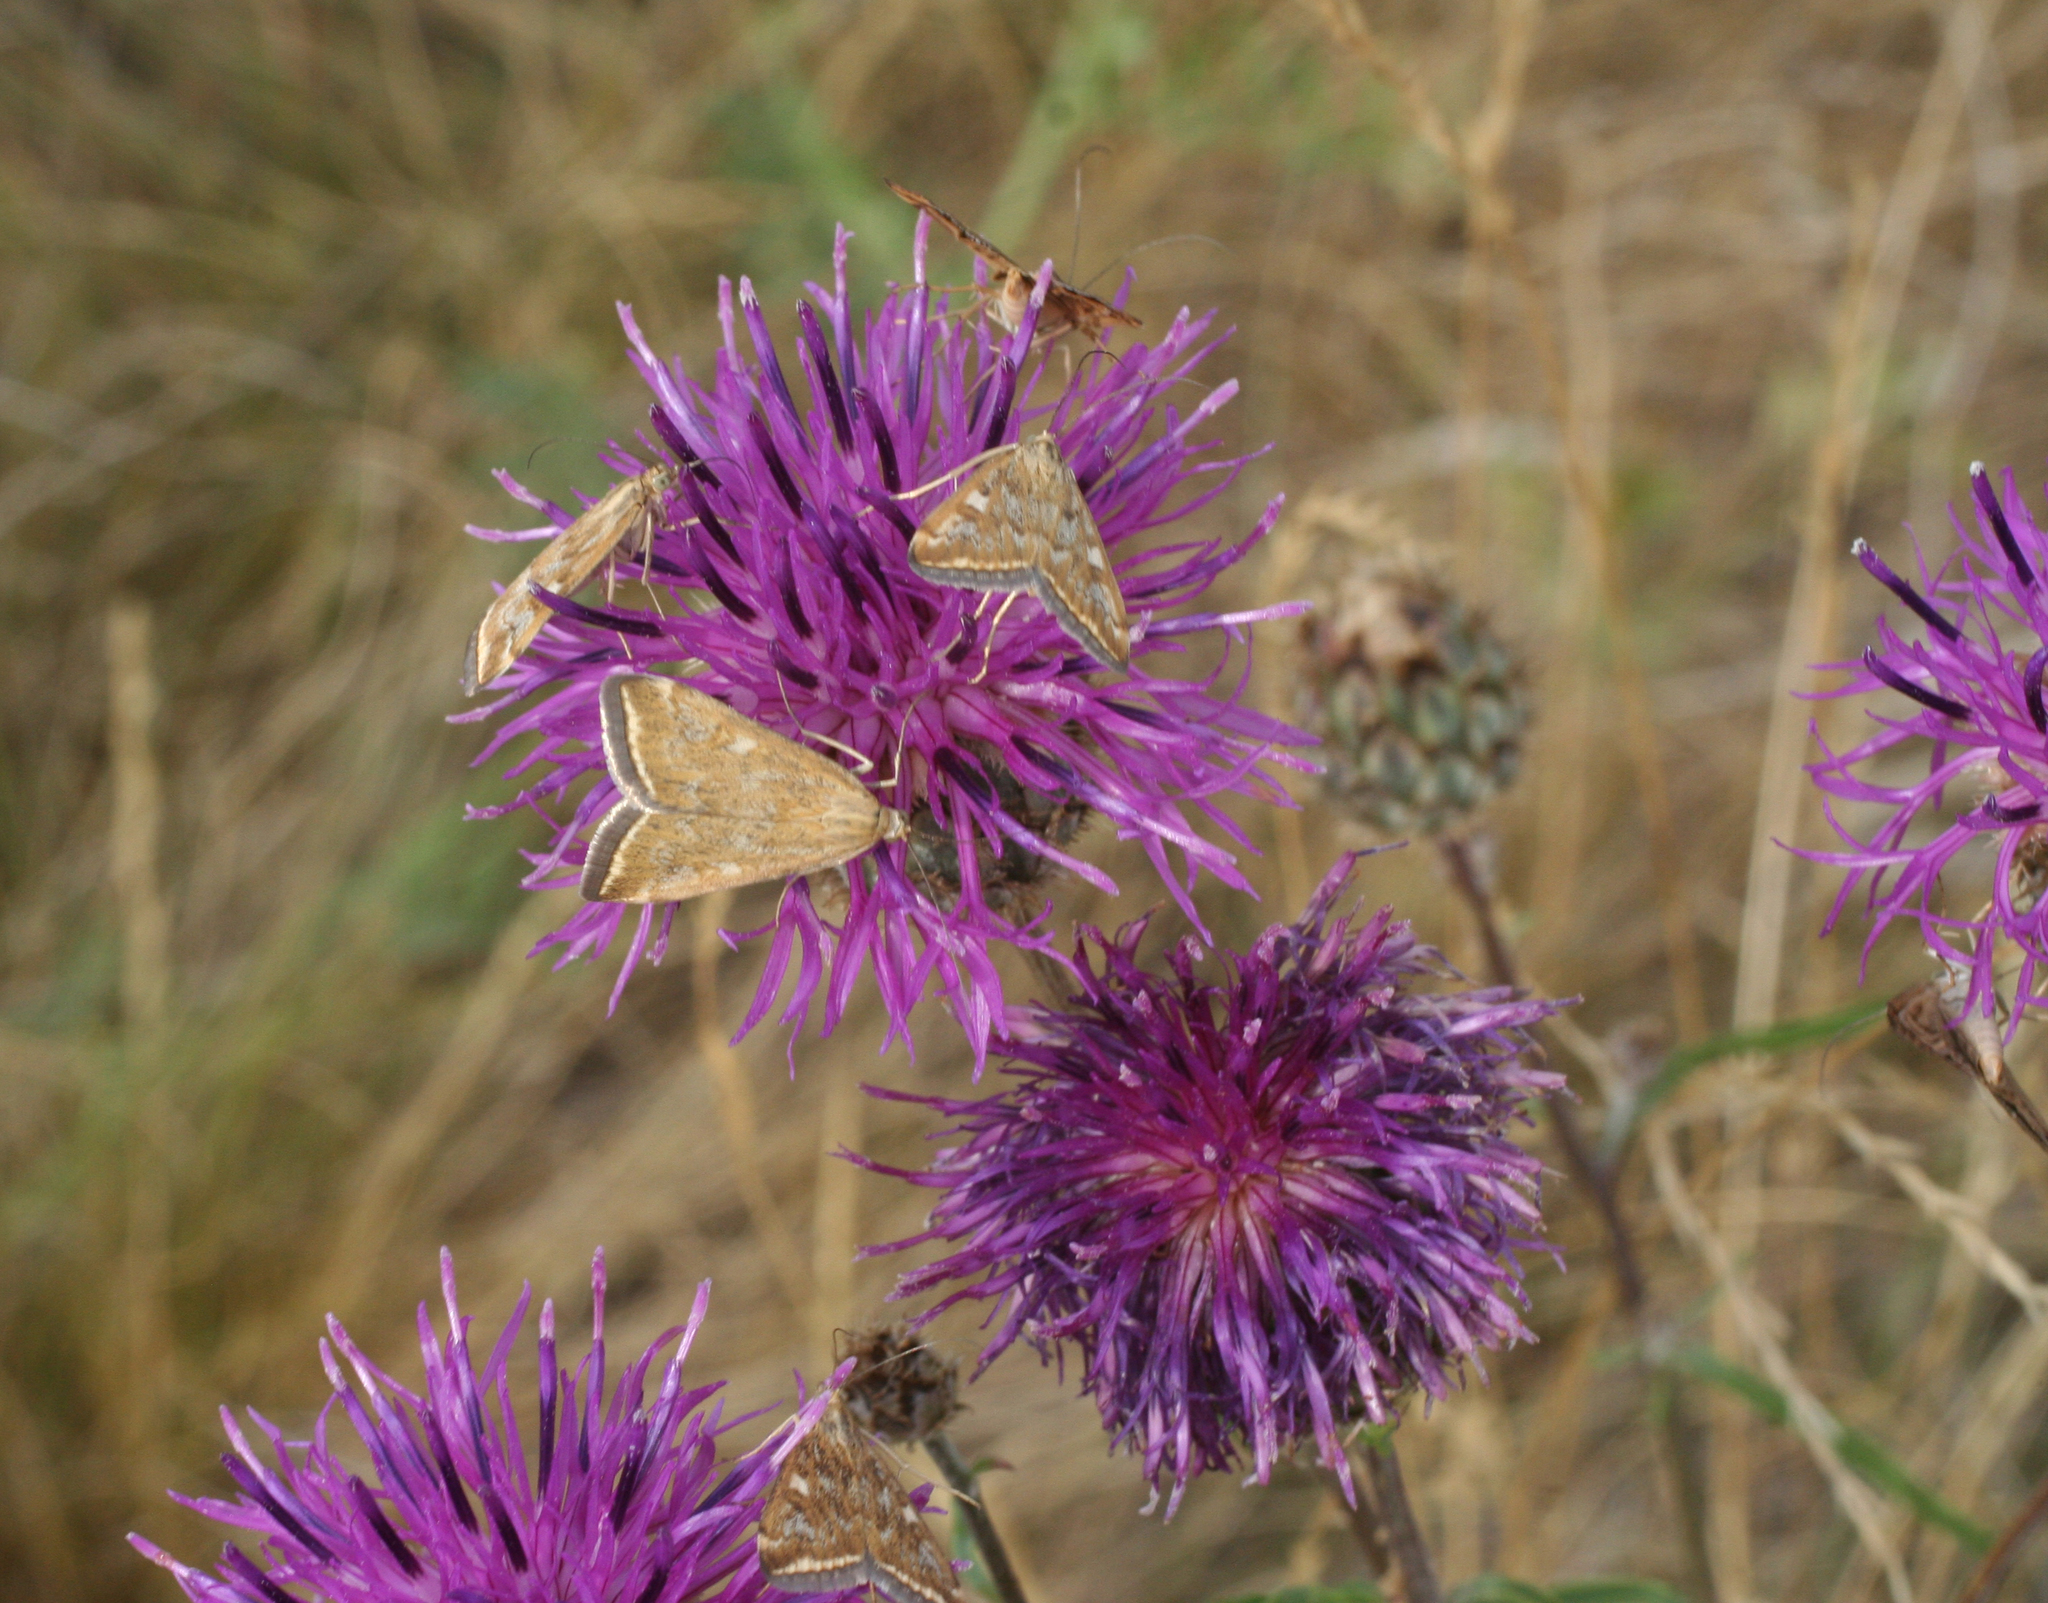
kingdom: Animalia
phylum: Arthropoda
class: Insecta
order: Lepidoptera
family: Crambidae
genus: Loxostege
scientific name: Loxostege sticticalis
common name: Crambid moth
